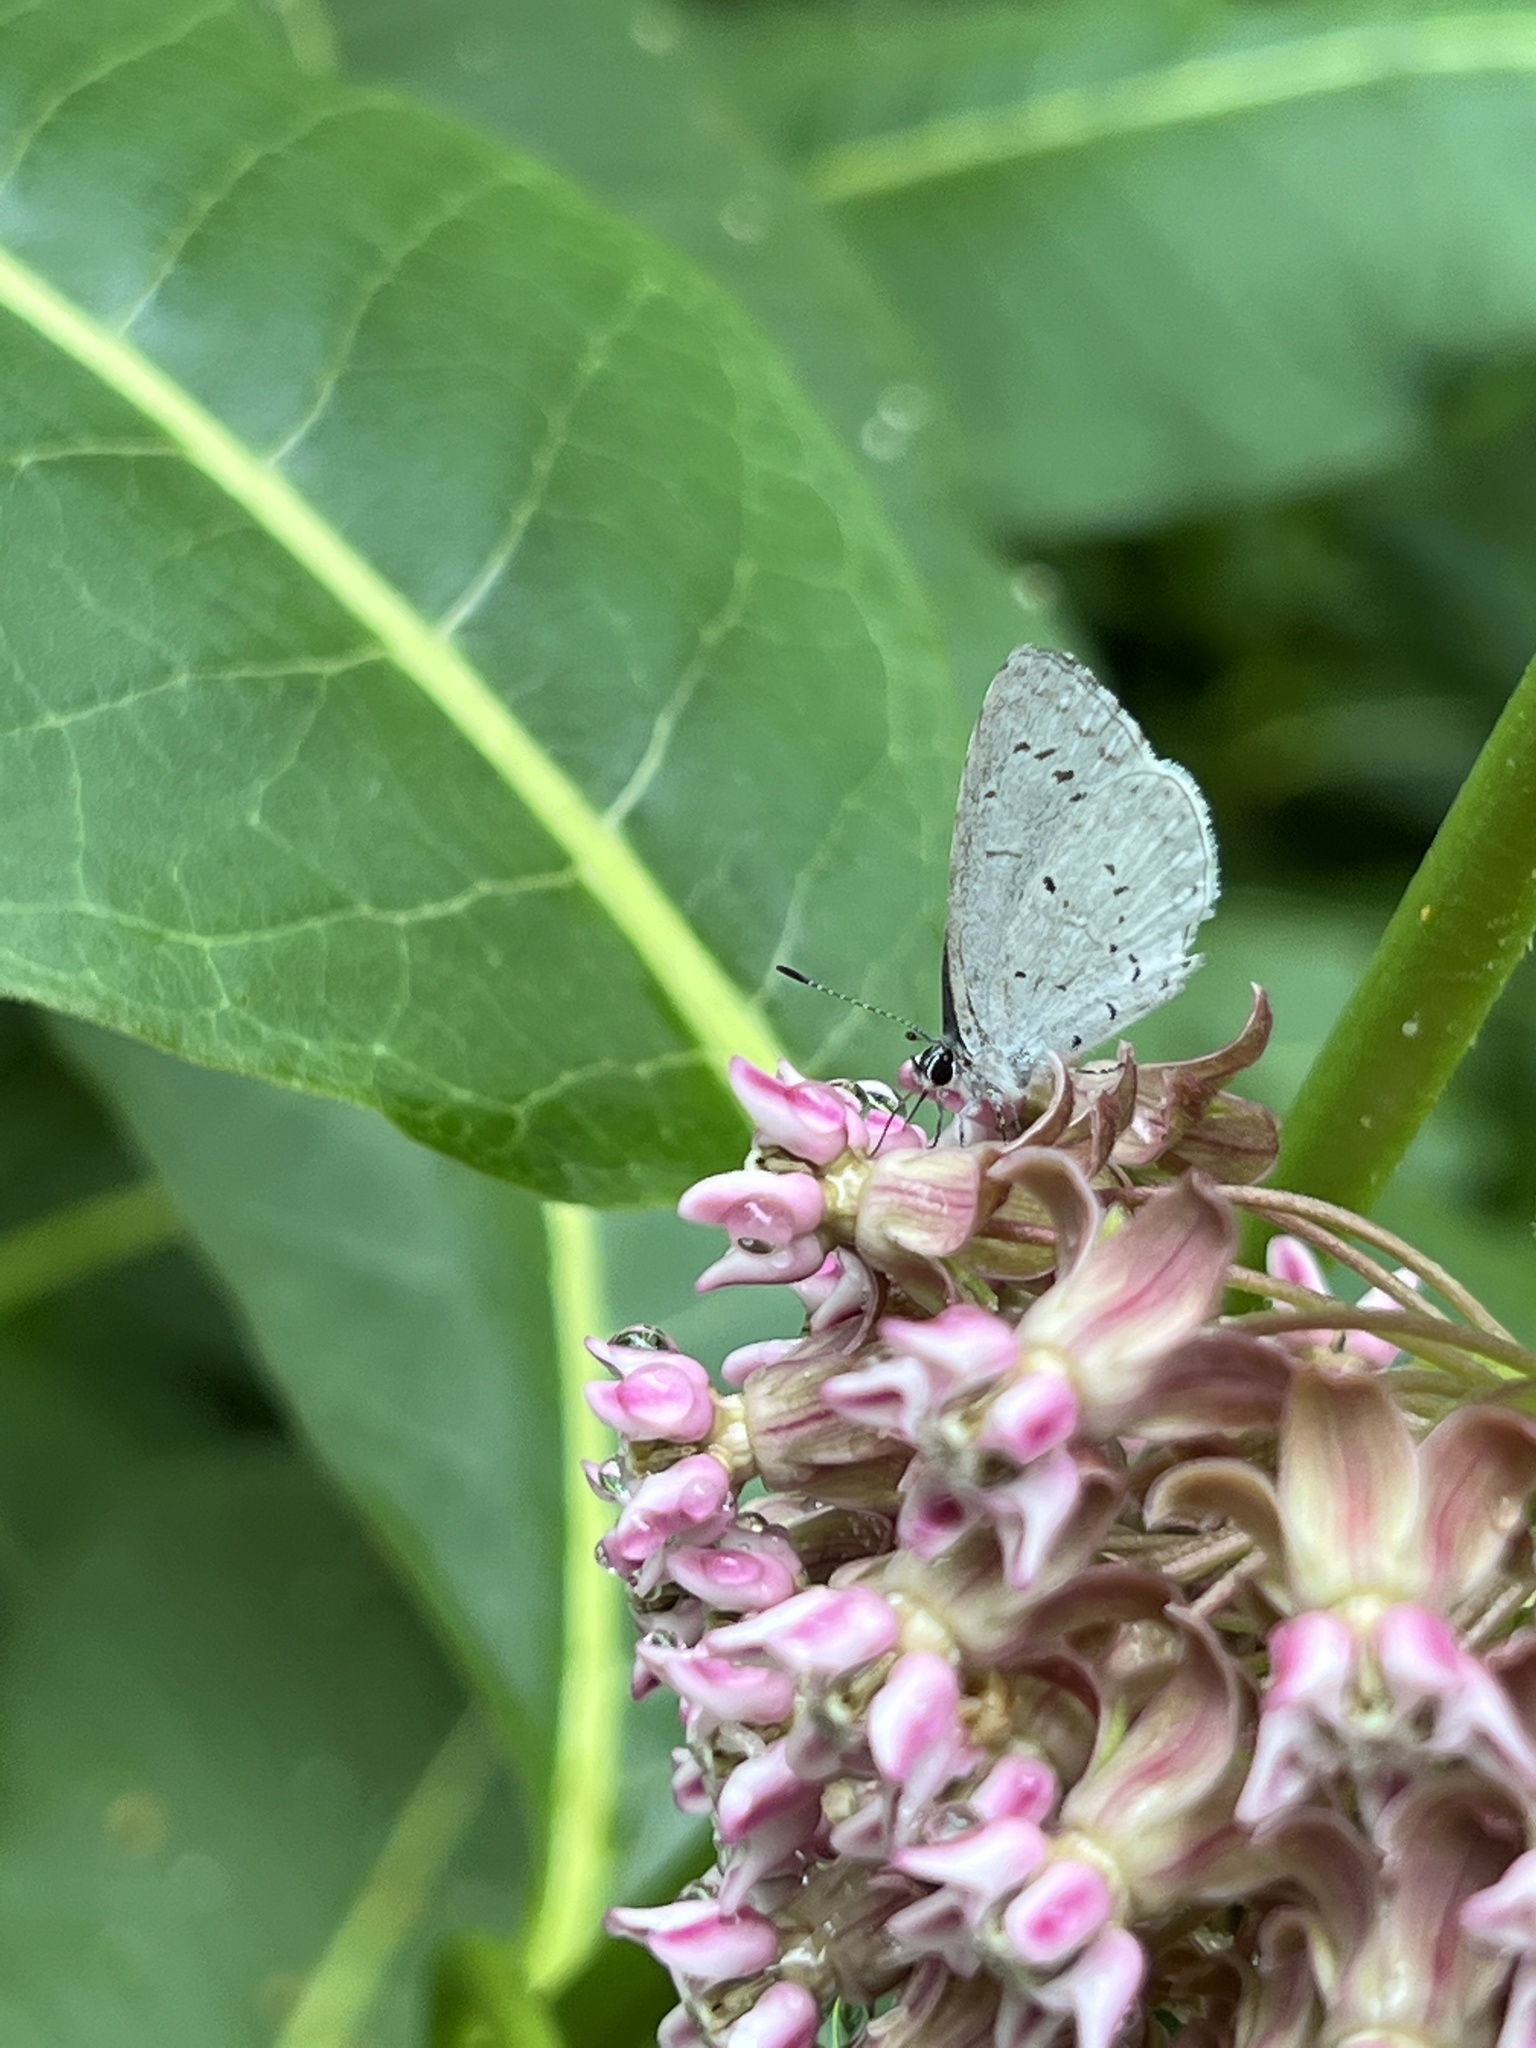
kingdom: Animalia
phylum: Arthropoda
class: Insecta
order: Lepidoptera
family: Lycaenidae
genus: Cyaniris
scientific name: Cyaniris neglecta
